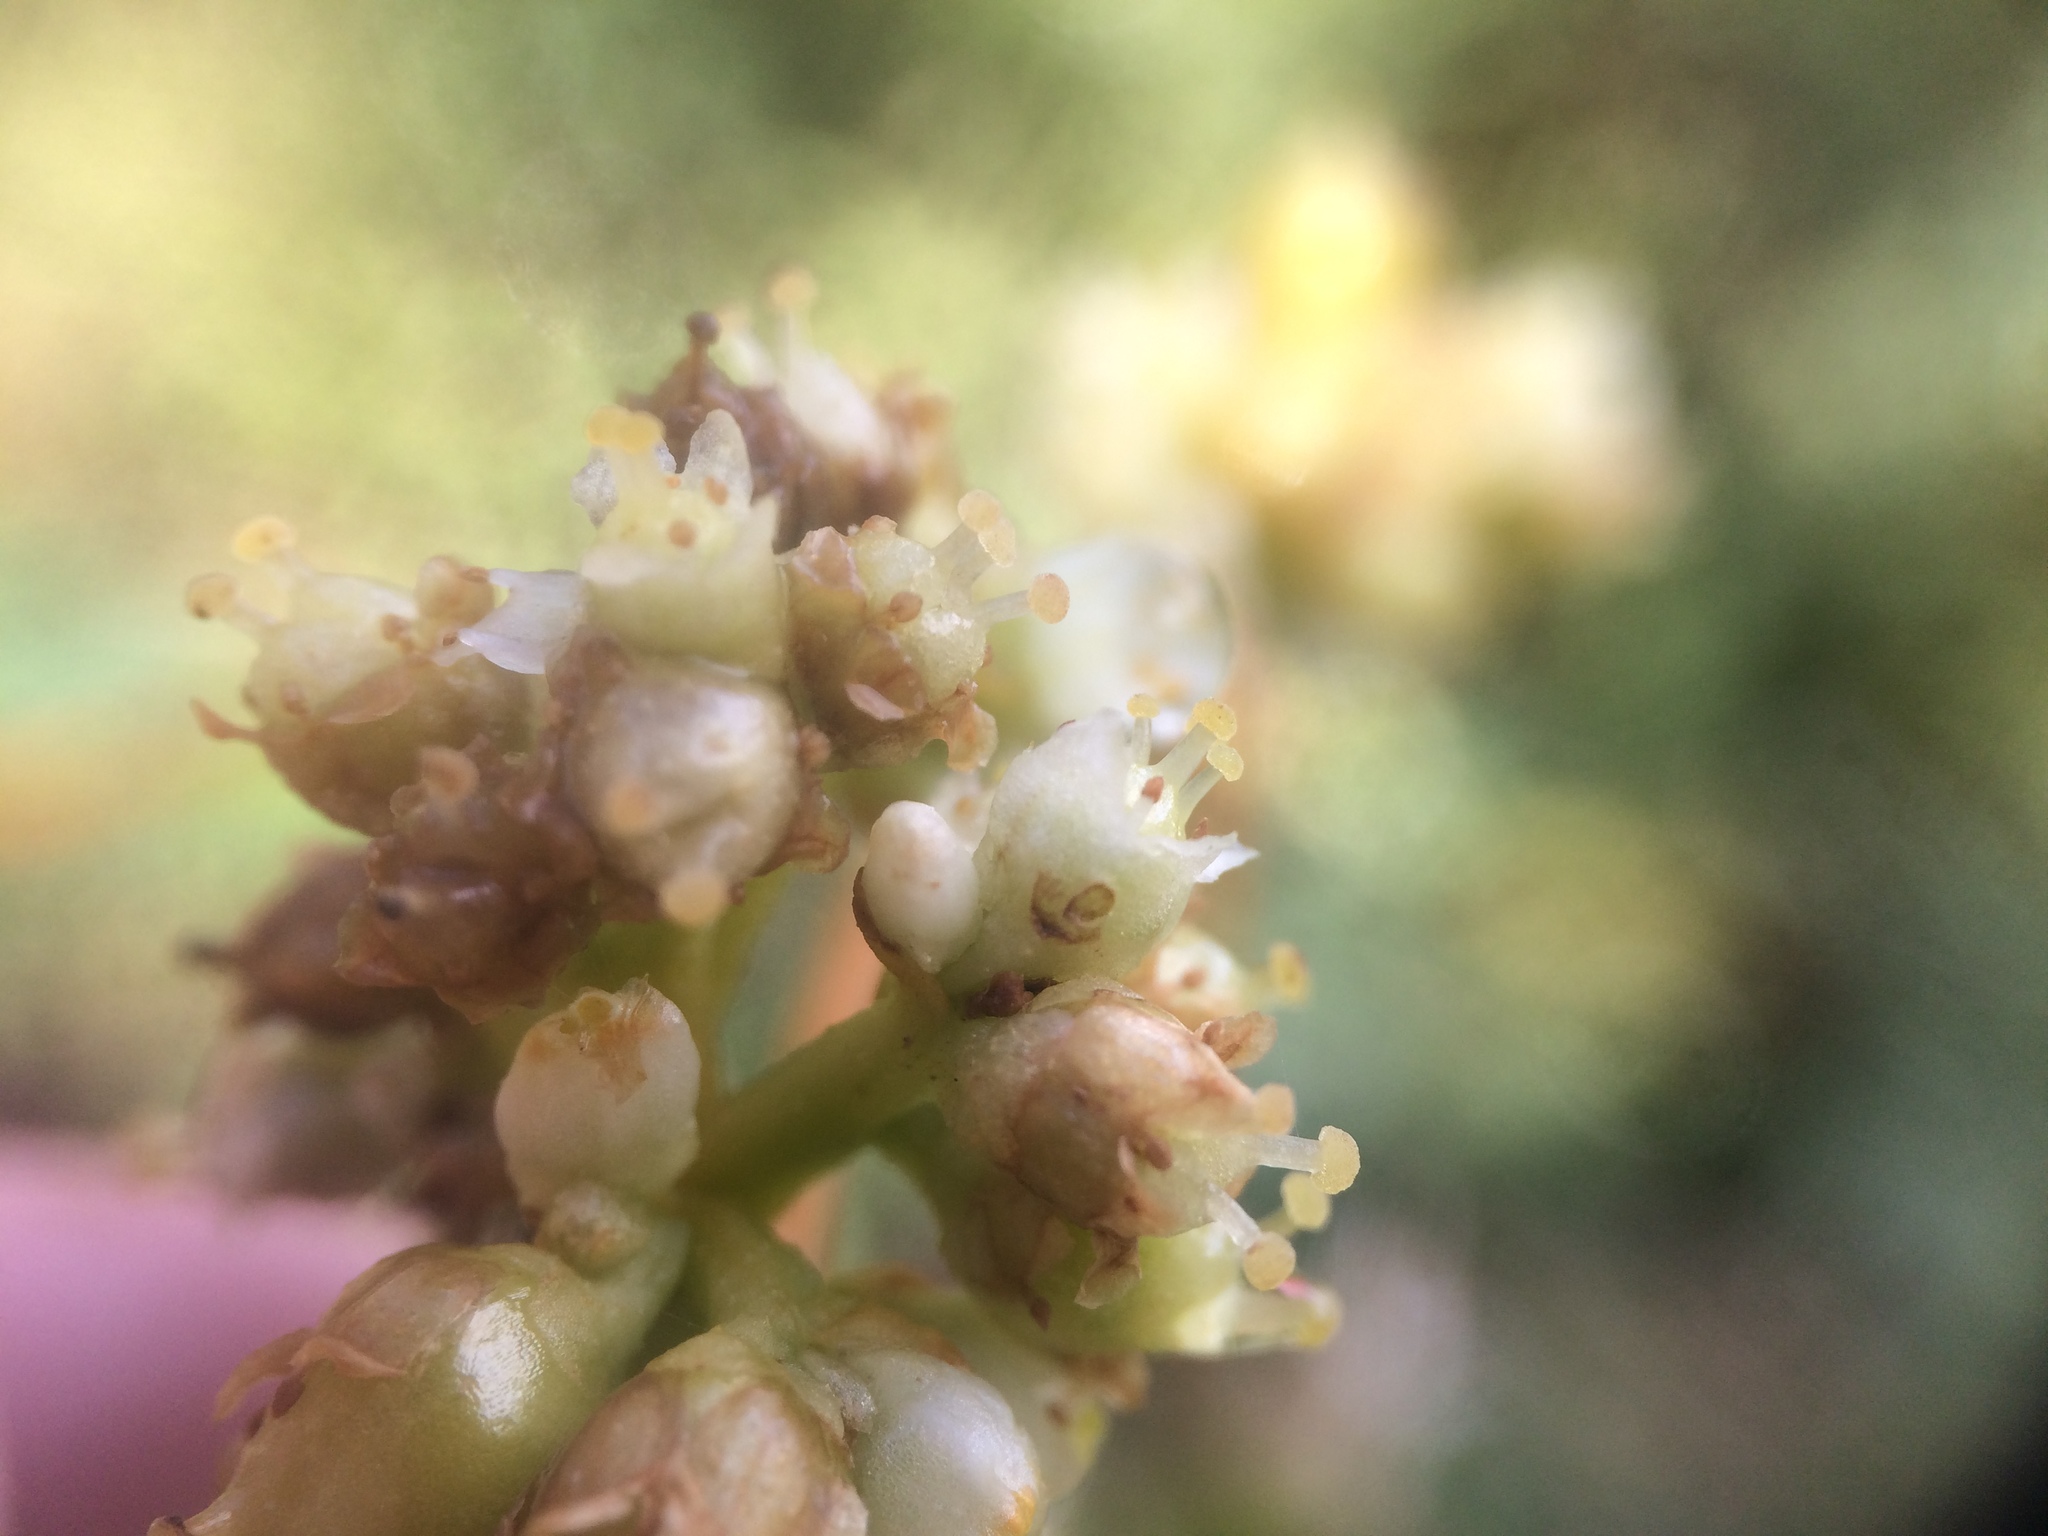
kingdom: Plantae
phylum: Tracheophyta
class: Magnoliopsida
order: Solanales
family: Convolvulaceae
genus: Cuscuta
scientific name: Cuscuta gronovii
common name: Common dodder
